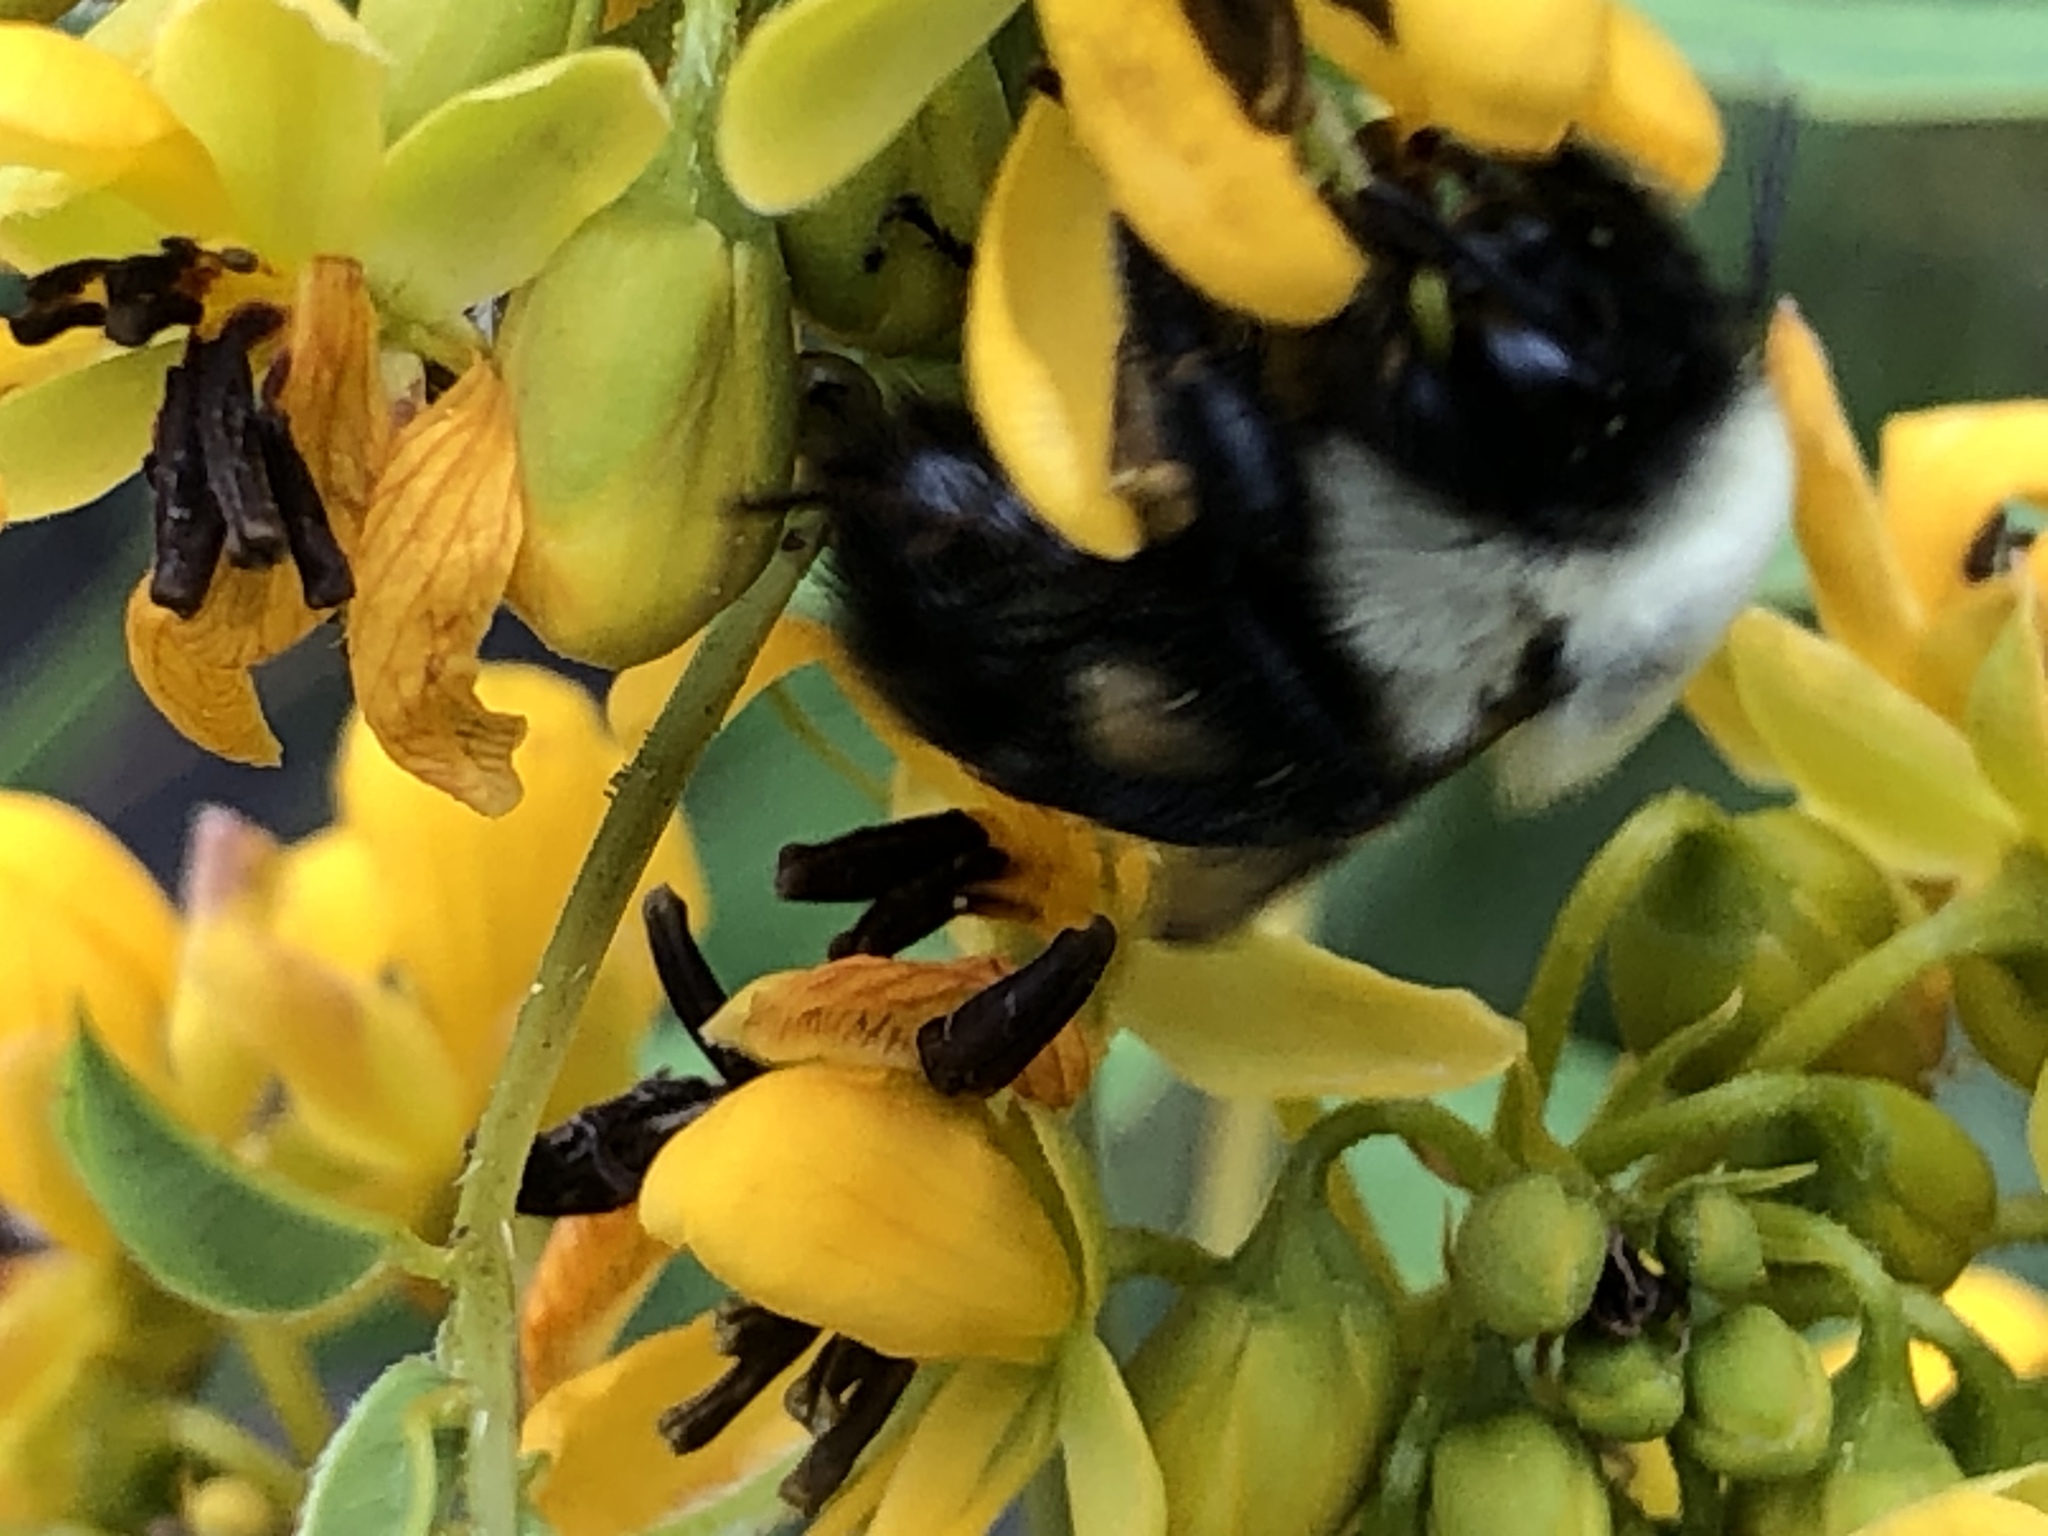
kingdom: Animalia
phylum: Arthropoda
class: Insecta
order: Hymenoptera
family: Apidae
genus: Bombus
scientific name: Bombus impatiens
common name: Common eastern bumble bee
